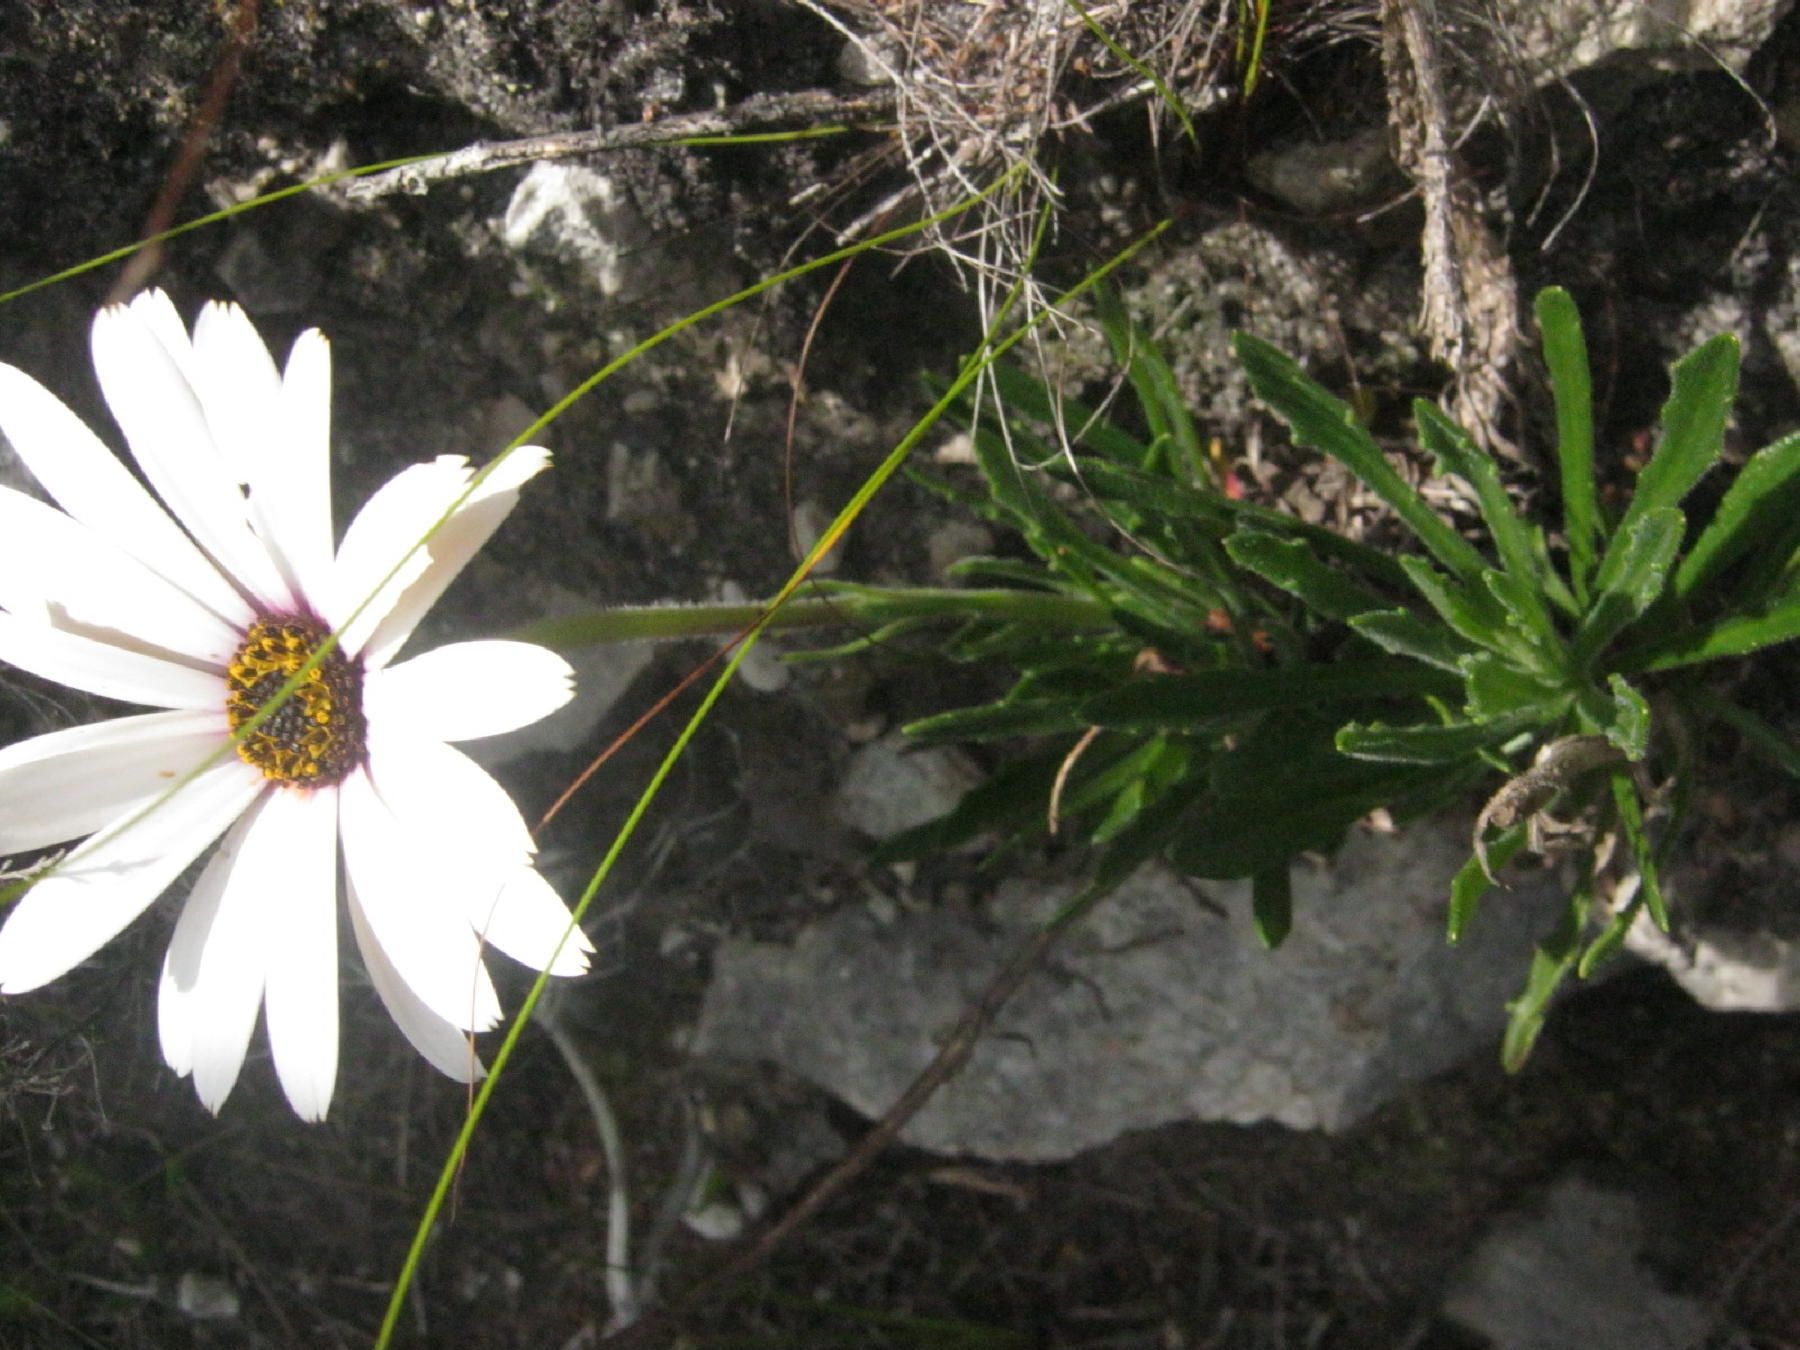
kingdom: Plantae
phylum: Tracheophyta
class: Magnoliopsida
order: Asterales
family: Asteraceae
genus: Dimorphotheca
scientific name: Dimorphotheca nudicaulis
